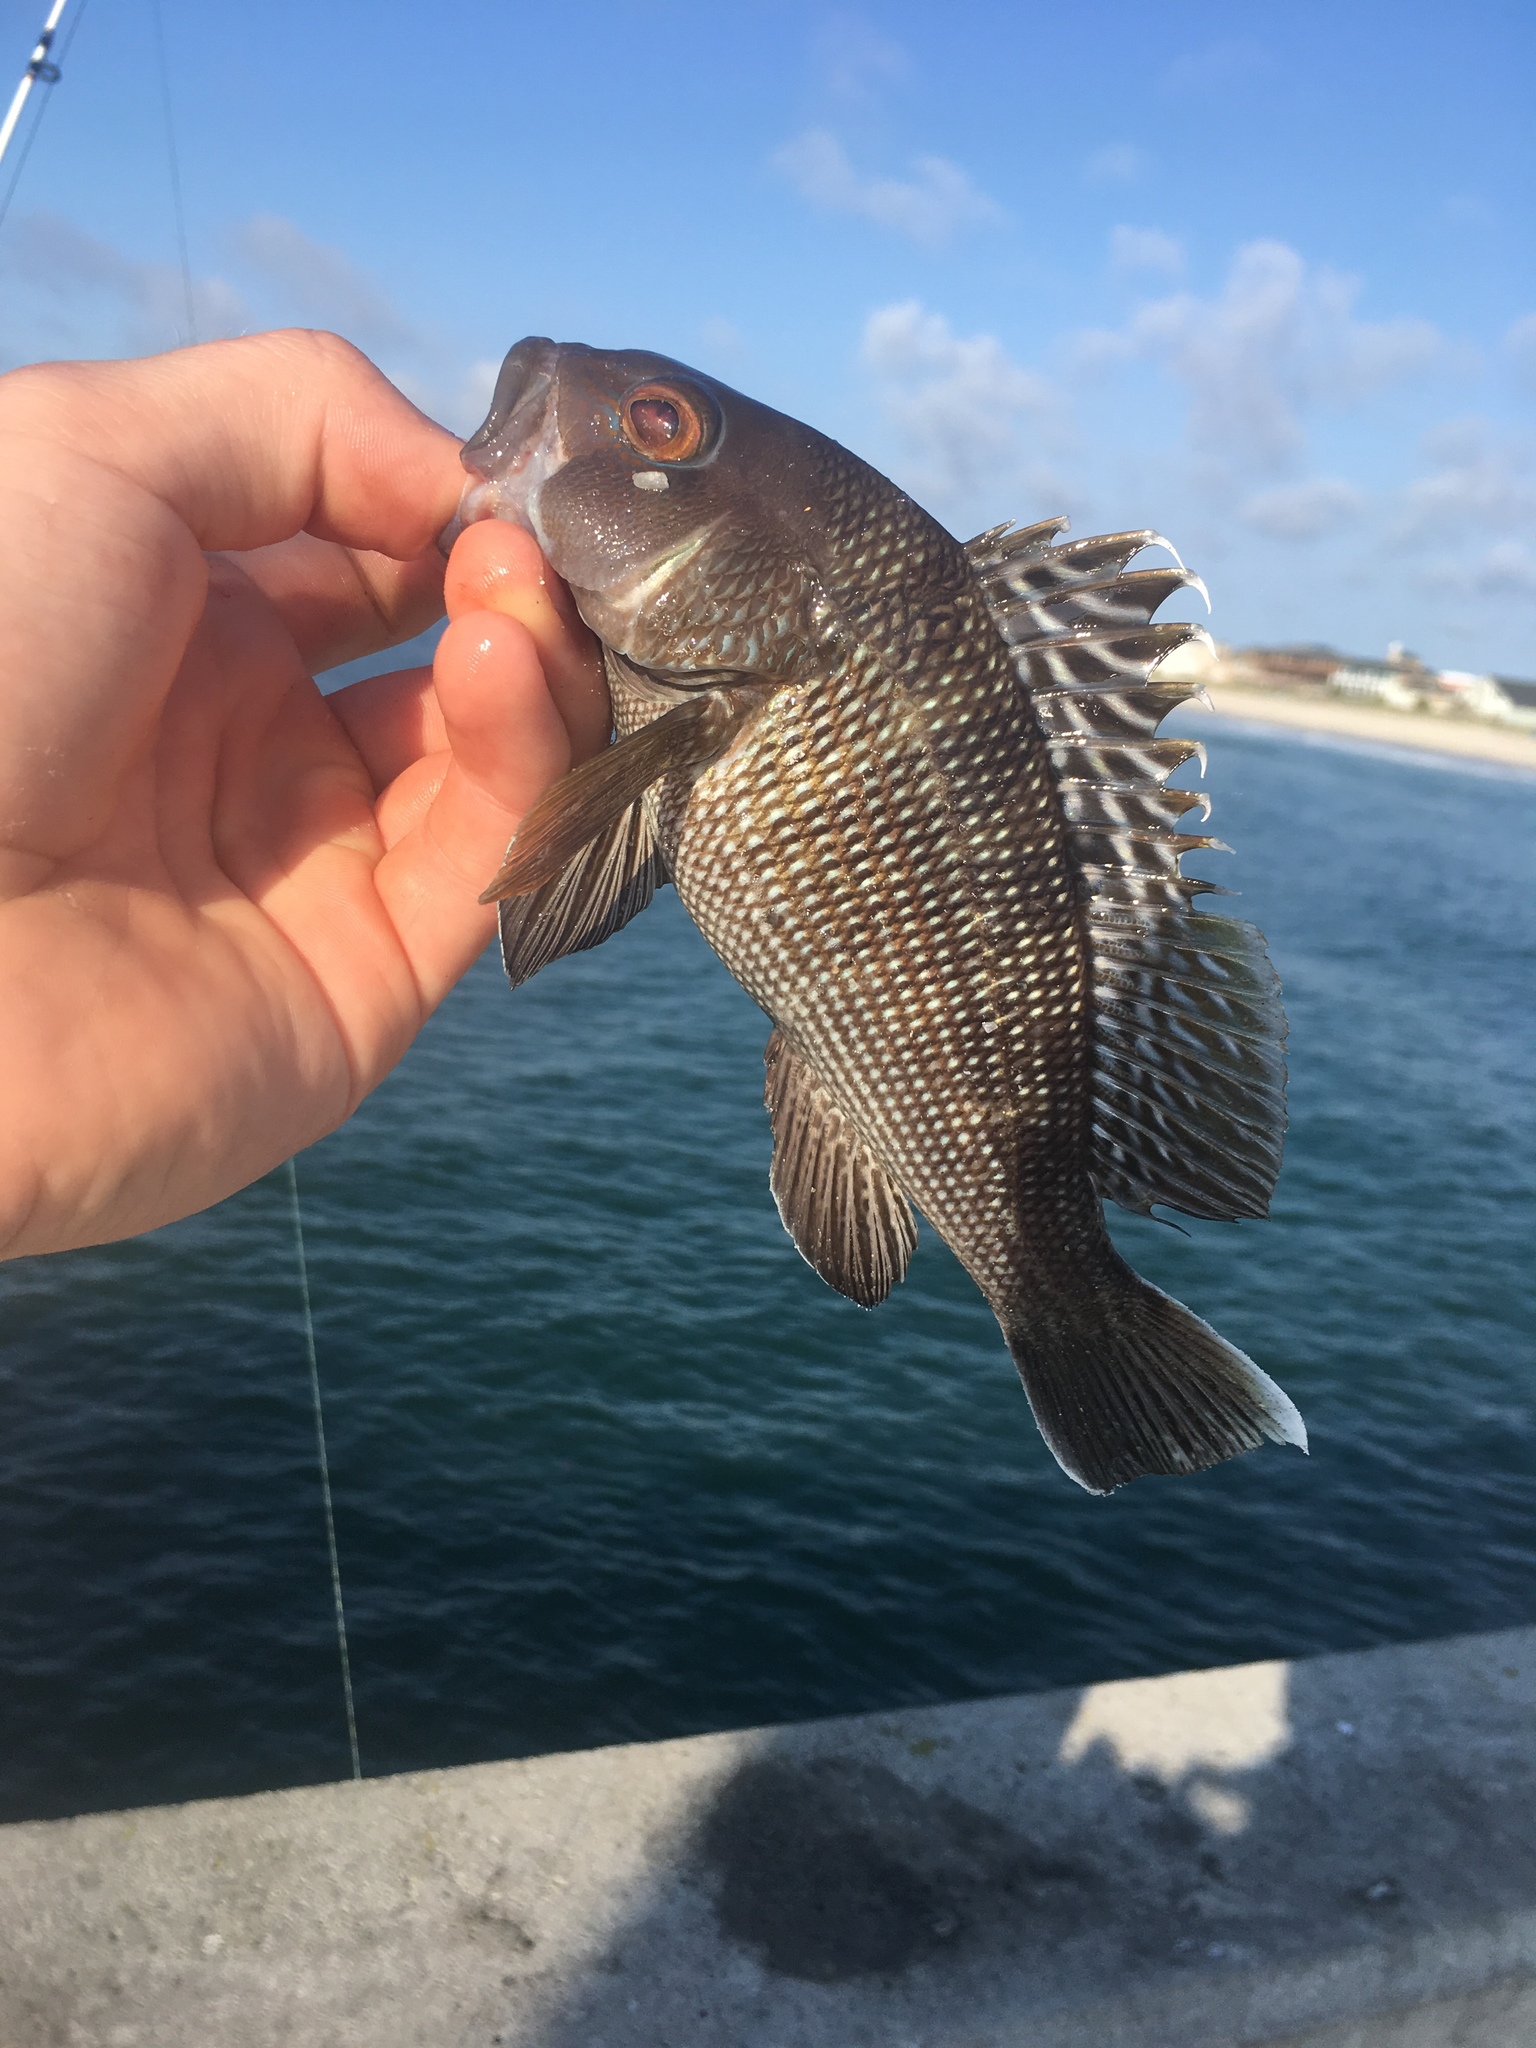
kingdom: Animalia
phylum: Chordata
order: Perciformes
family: Serranidae
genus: Centropristis
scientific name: Centropristis striata
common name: Black sea bass
